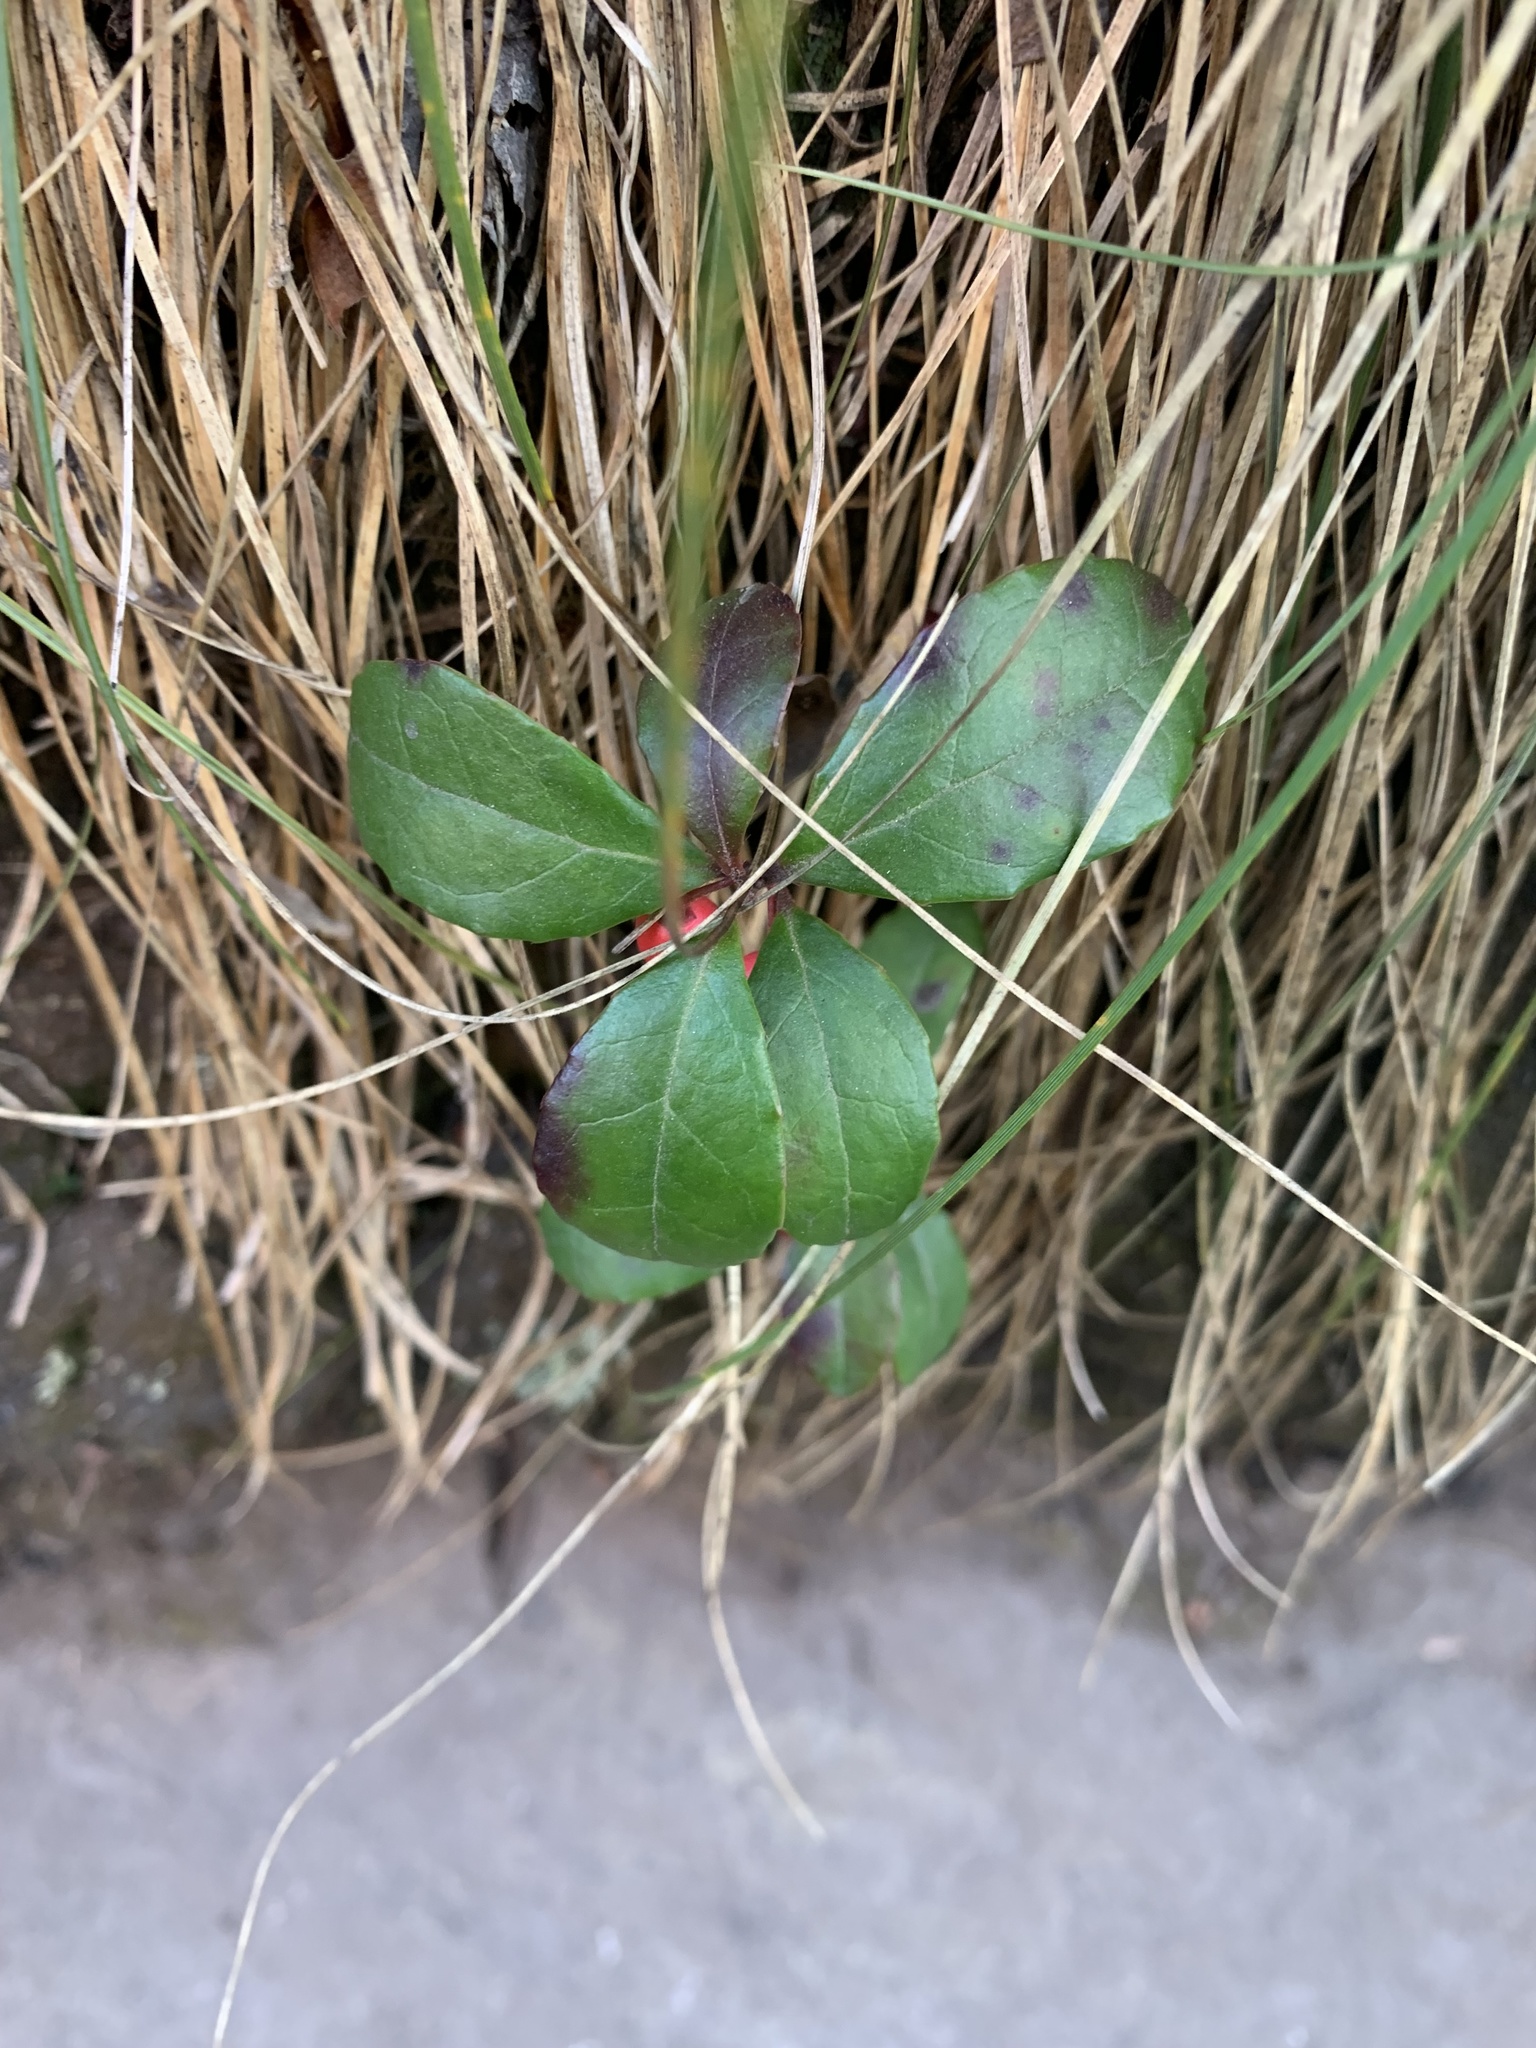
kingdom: Plantae
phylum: Tracheophyta
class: Magnoliopsida
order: Ericales
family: Ericaceae
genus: Gaultheria
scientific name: Gaultheria procumbens
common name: Checkerberry
